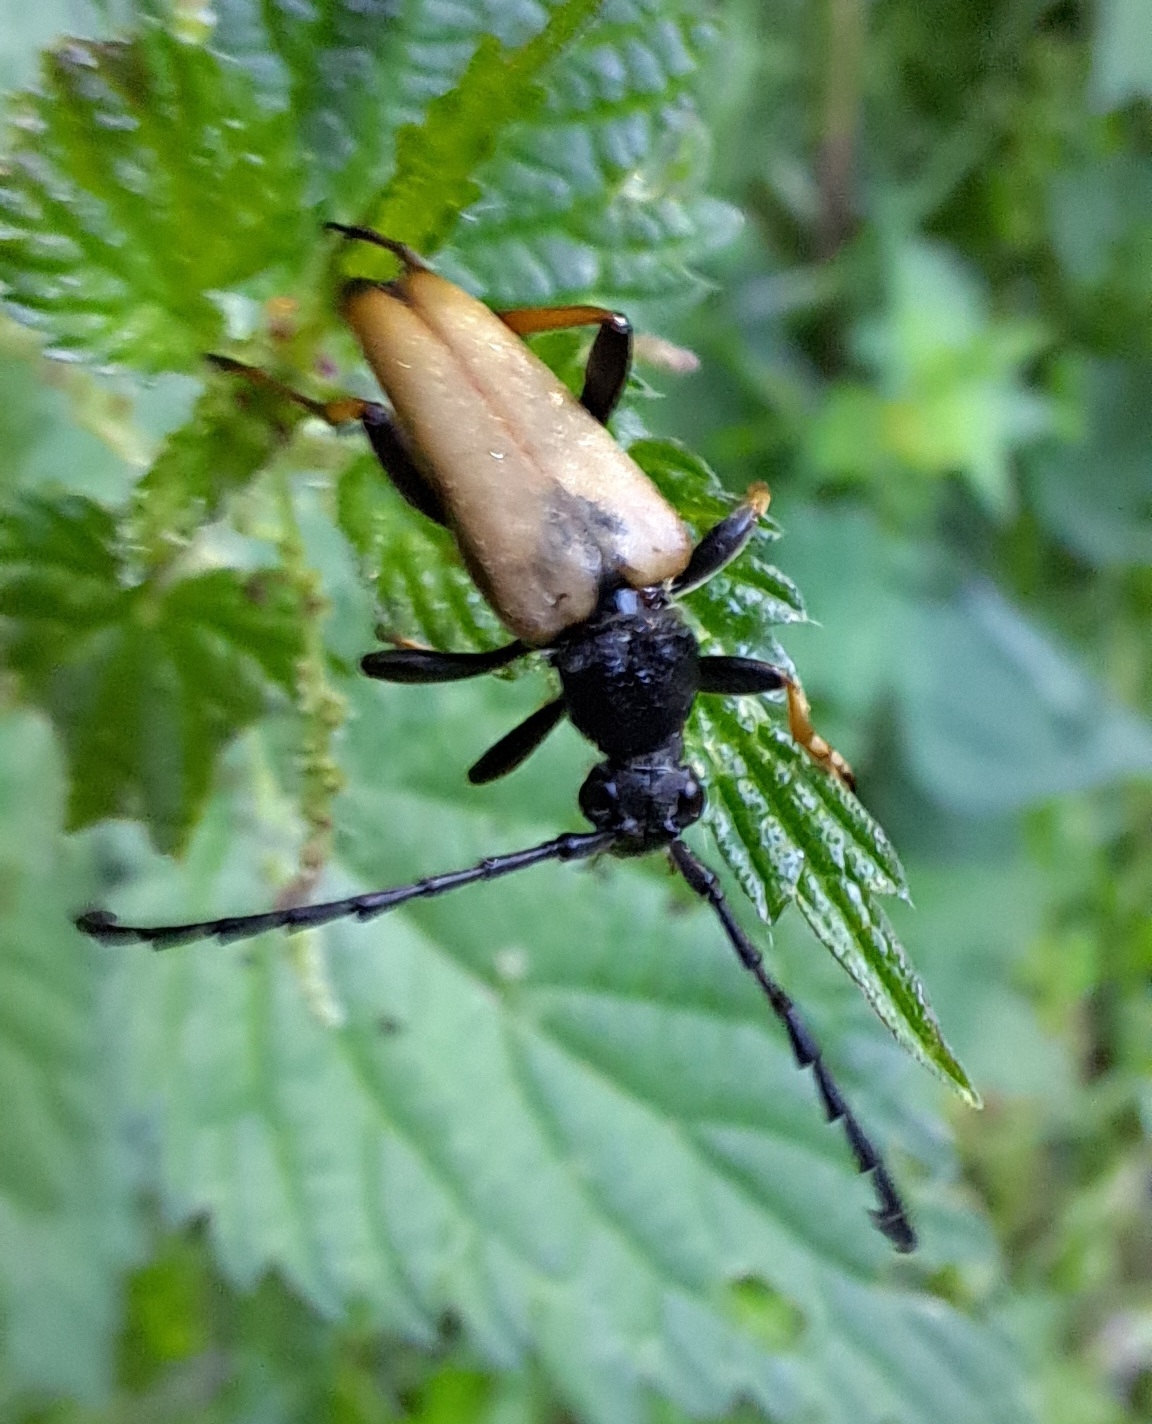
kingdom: Animalia
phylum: Arthropoda
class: Insecta
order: Coleoptera
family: Cerambycidae
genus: Stictoleptura
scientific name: Stictoleptura rubra
